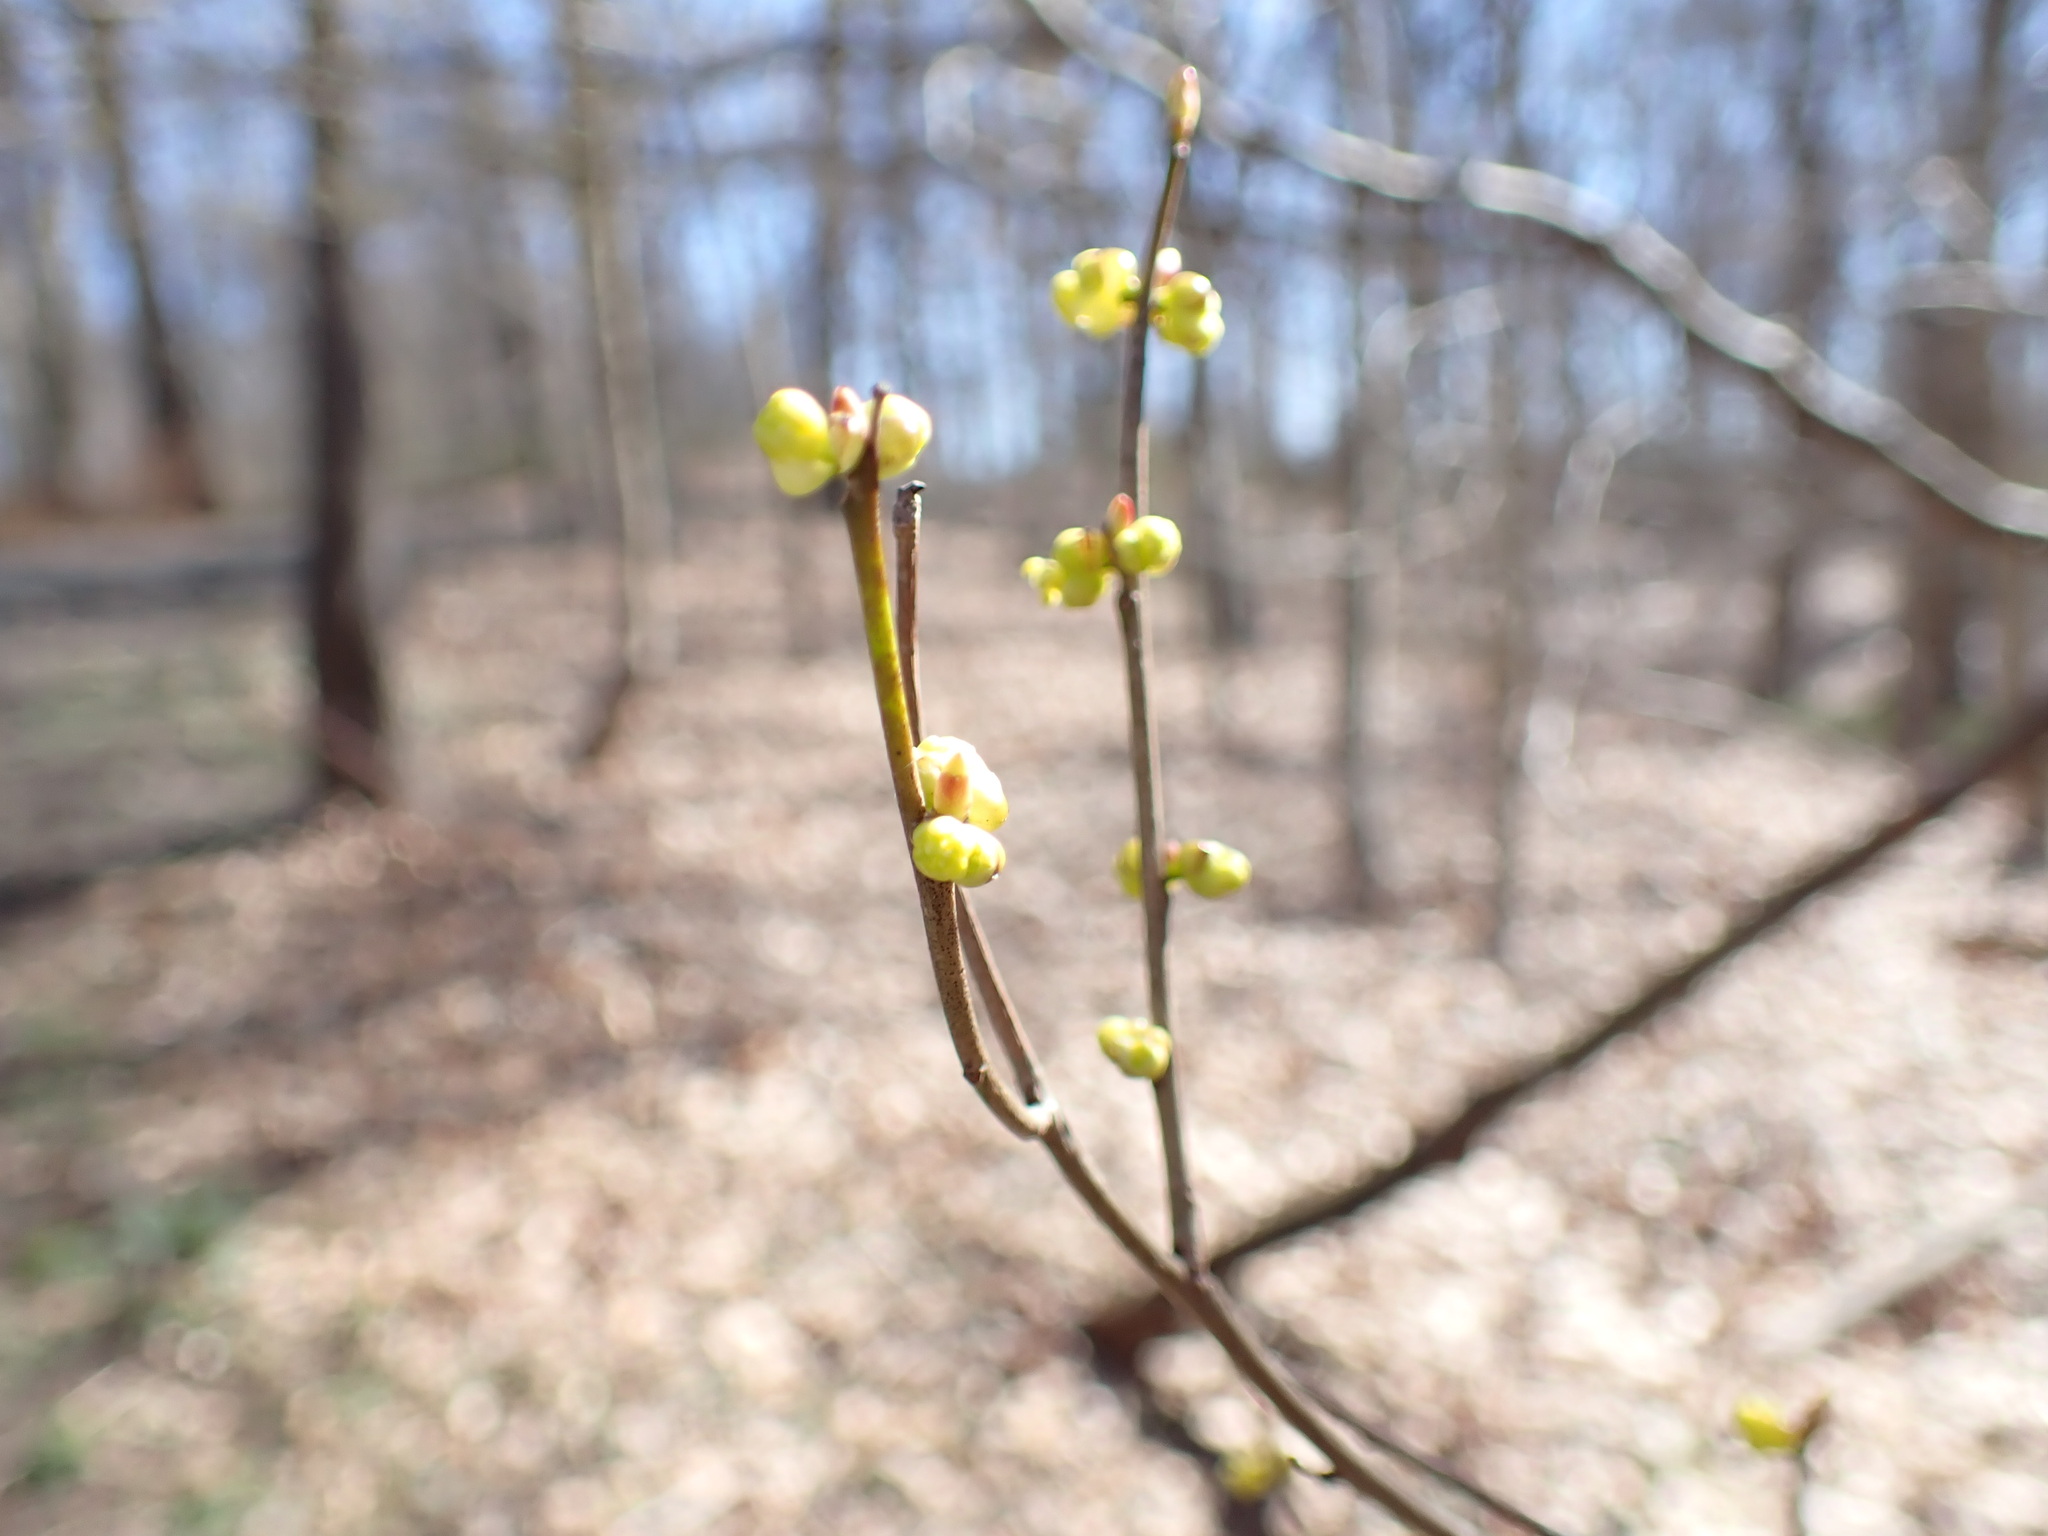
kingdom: Plantae
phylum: Tracheophyta
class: Magnoliopsida
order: Laurales
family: Lauraceae
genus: Lindera
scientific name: Lindera benzoin
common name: Spicebush
